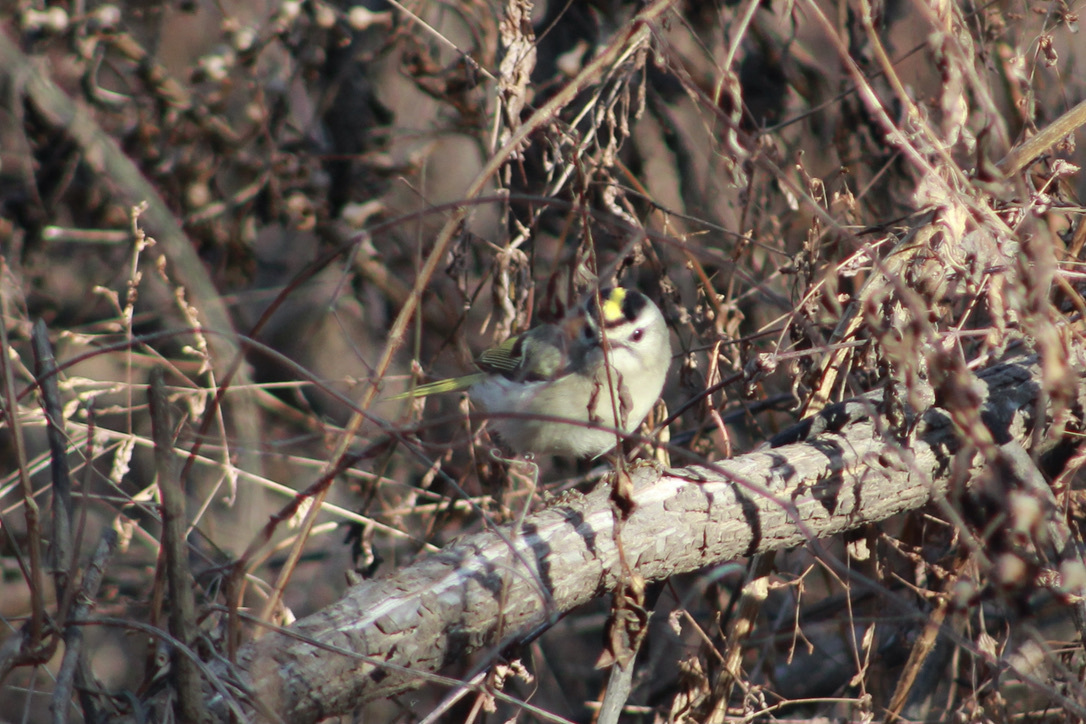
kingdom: Animalia
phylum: Chordata
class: Aves
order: Passeriformes
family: Regulidae
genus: Regulus
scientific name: Regulus satrapa
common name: Golden-crowned kinglet
